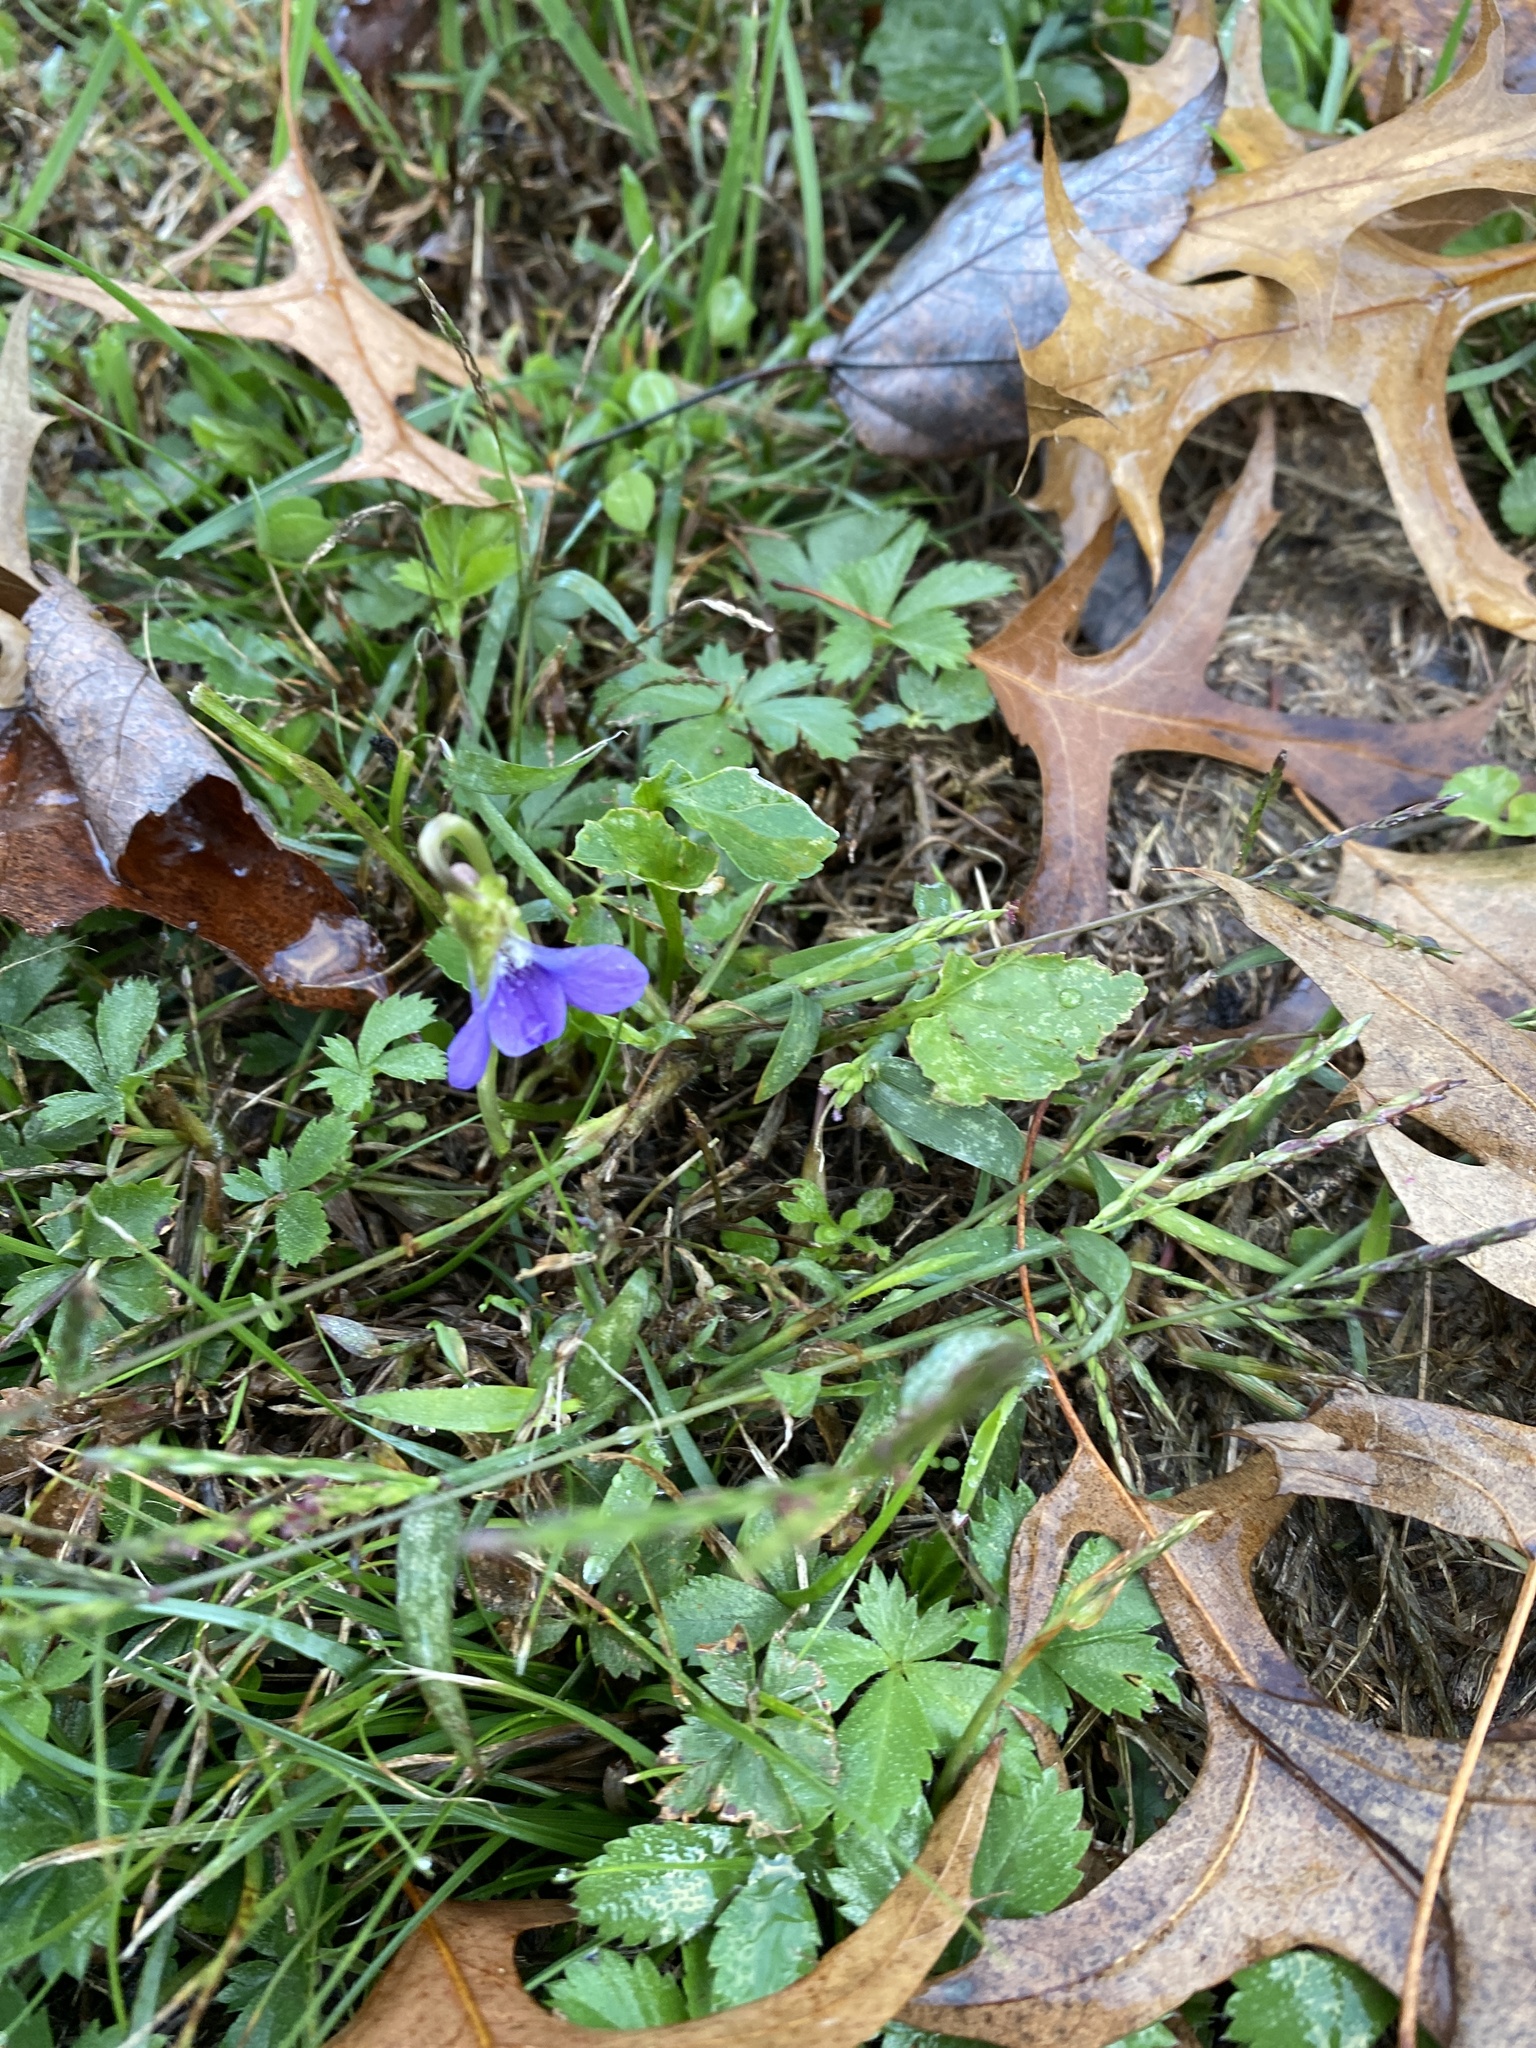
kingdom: Plantae
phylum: Tracheophyta
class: Magnoliopsida
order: Malpighiales
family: Violaceae
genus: Viola
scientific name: Viola sororia
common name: Dooryard violet
